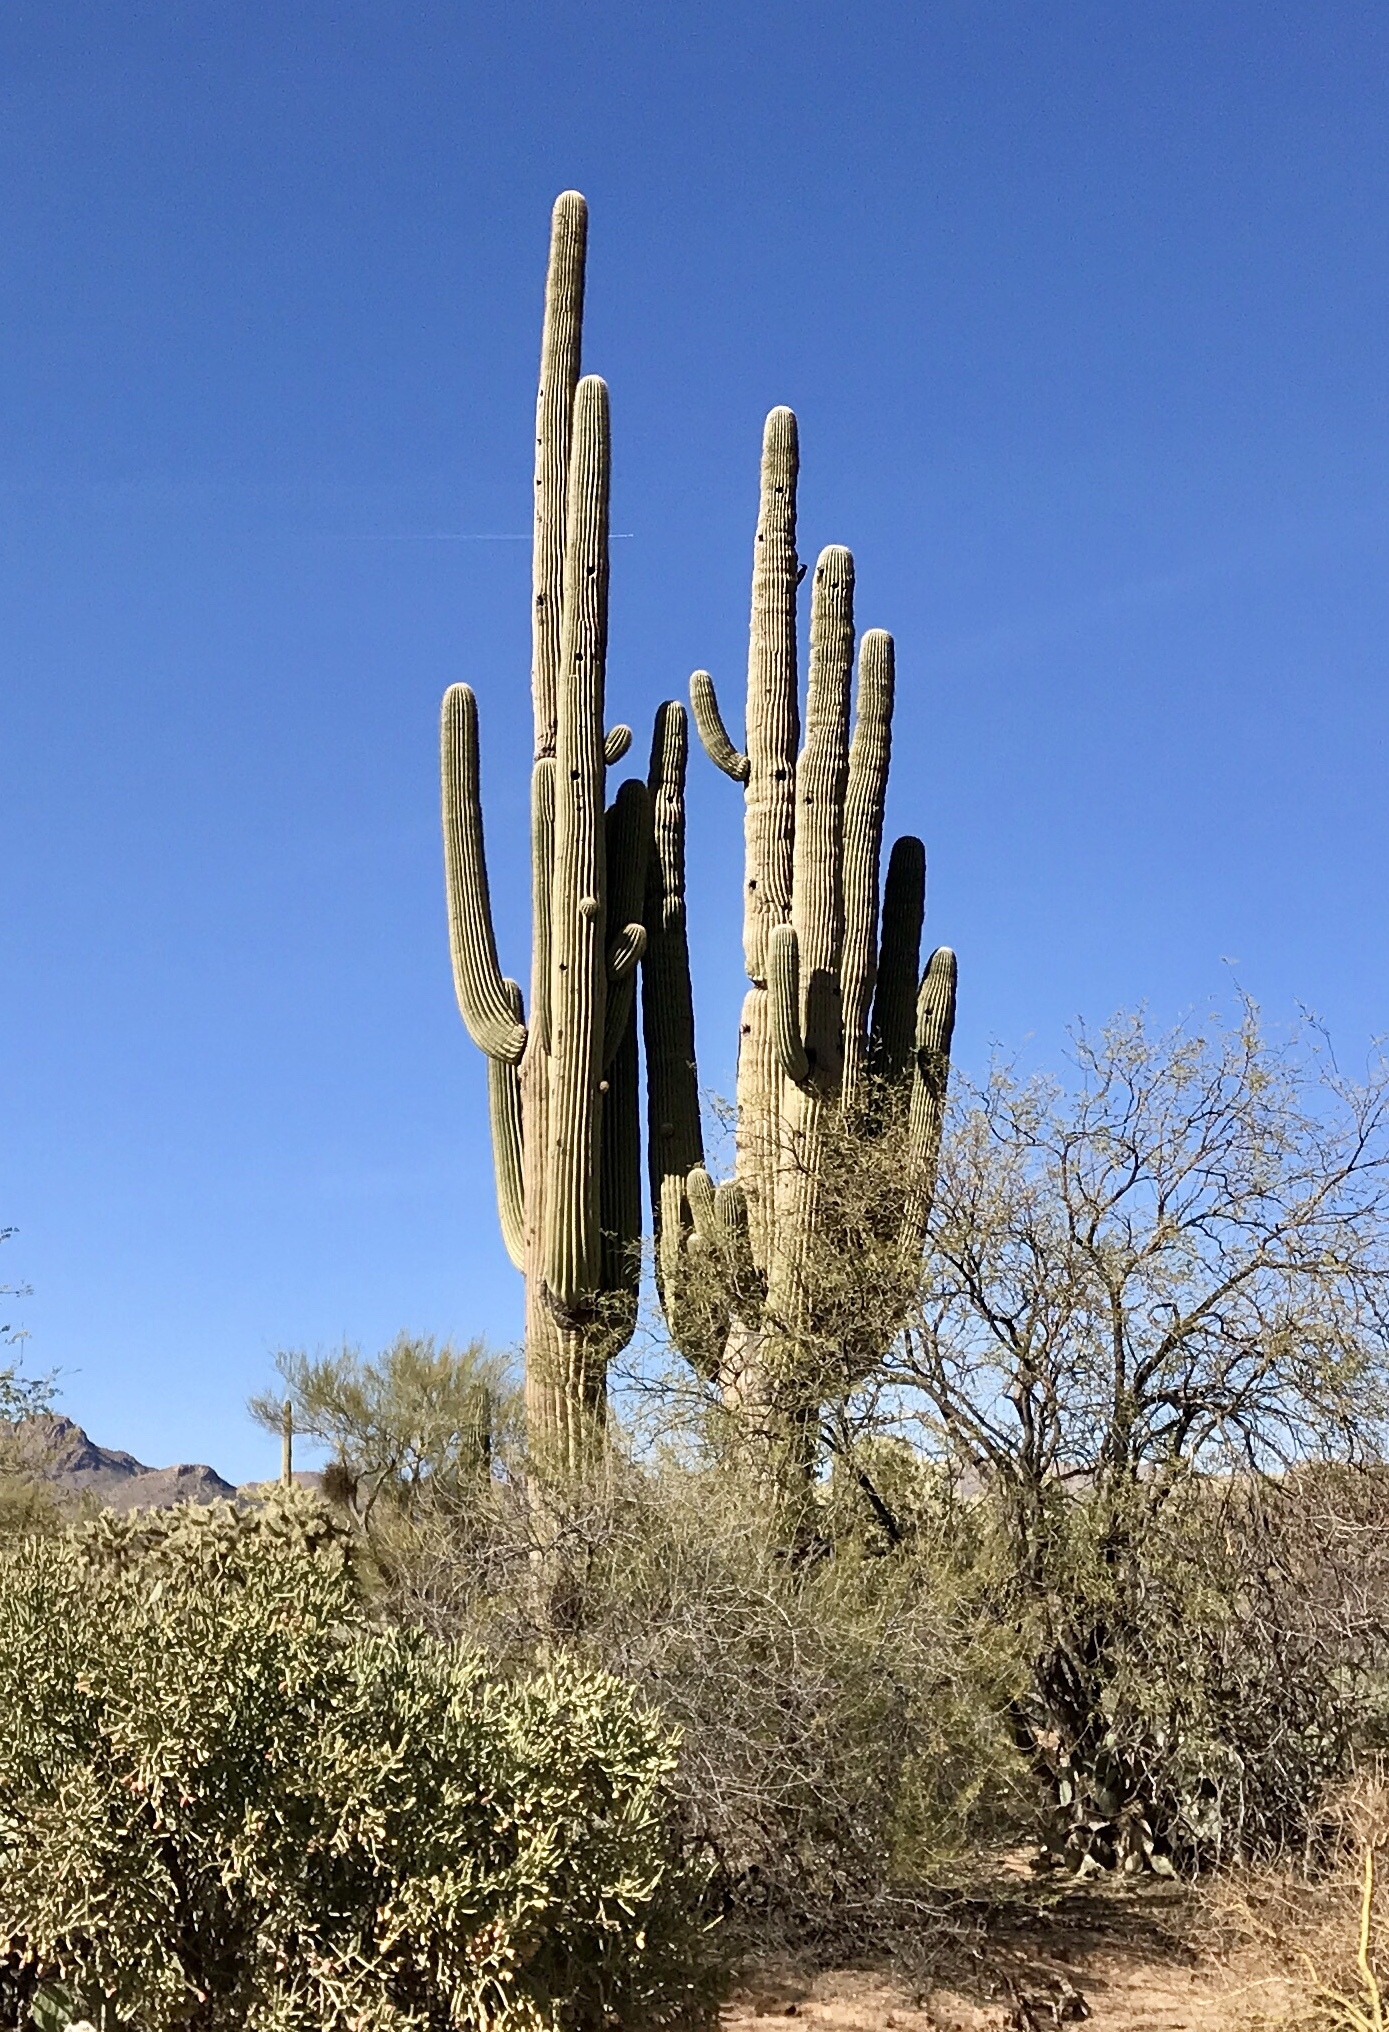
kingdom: Plantae
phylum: Tracheophyta
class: Magnoliopsida
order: Caryophyllales
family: Cactaceae
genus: Carnegiea
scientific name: Carnegiea gigantea
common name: Saguaro
